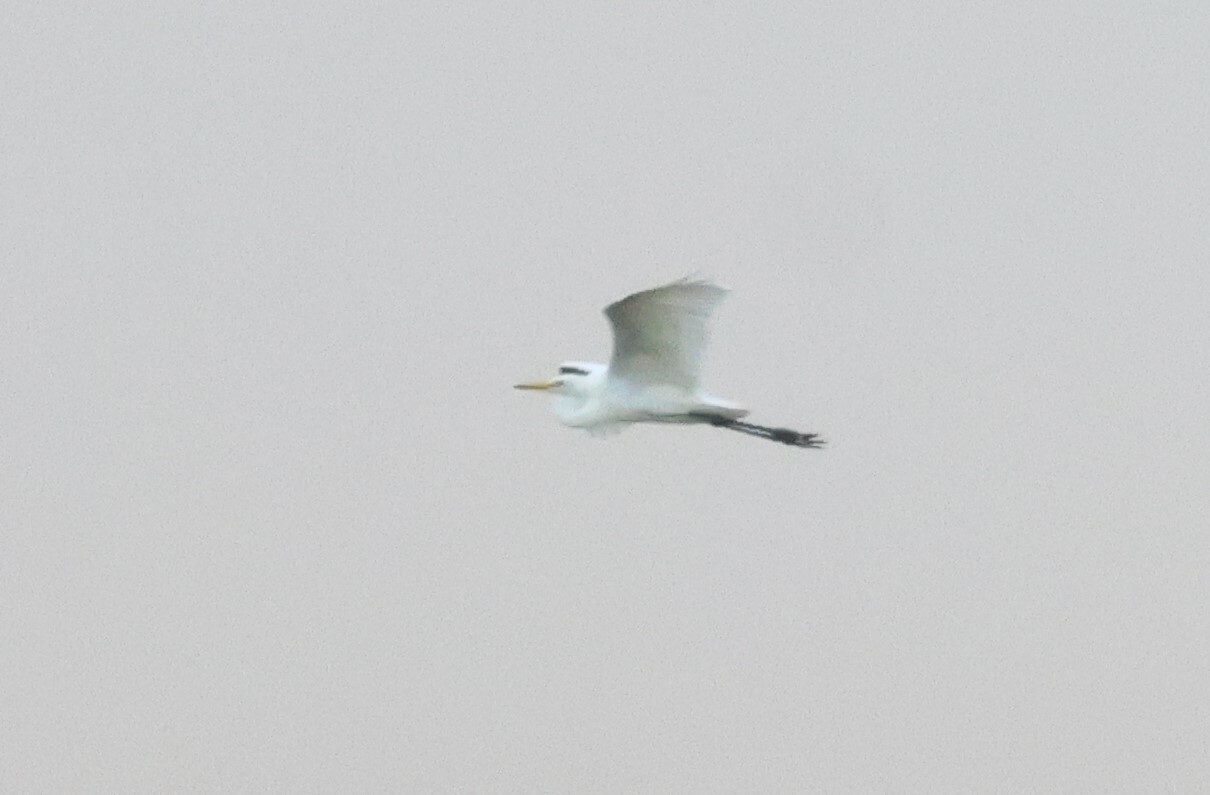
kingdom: Animalia
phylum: Chordata
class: Aves
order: Pelecaniformes
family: Ardeidae
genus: Ardea
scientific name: Ardea alba
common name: Great egret
